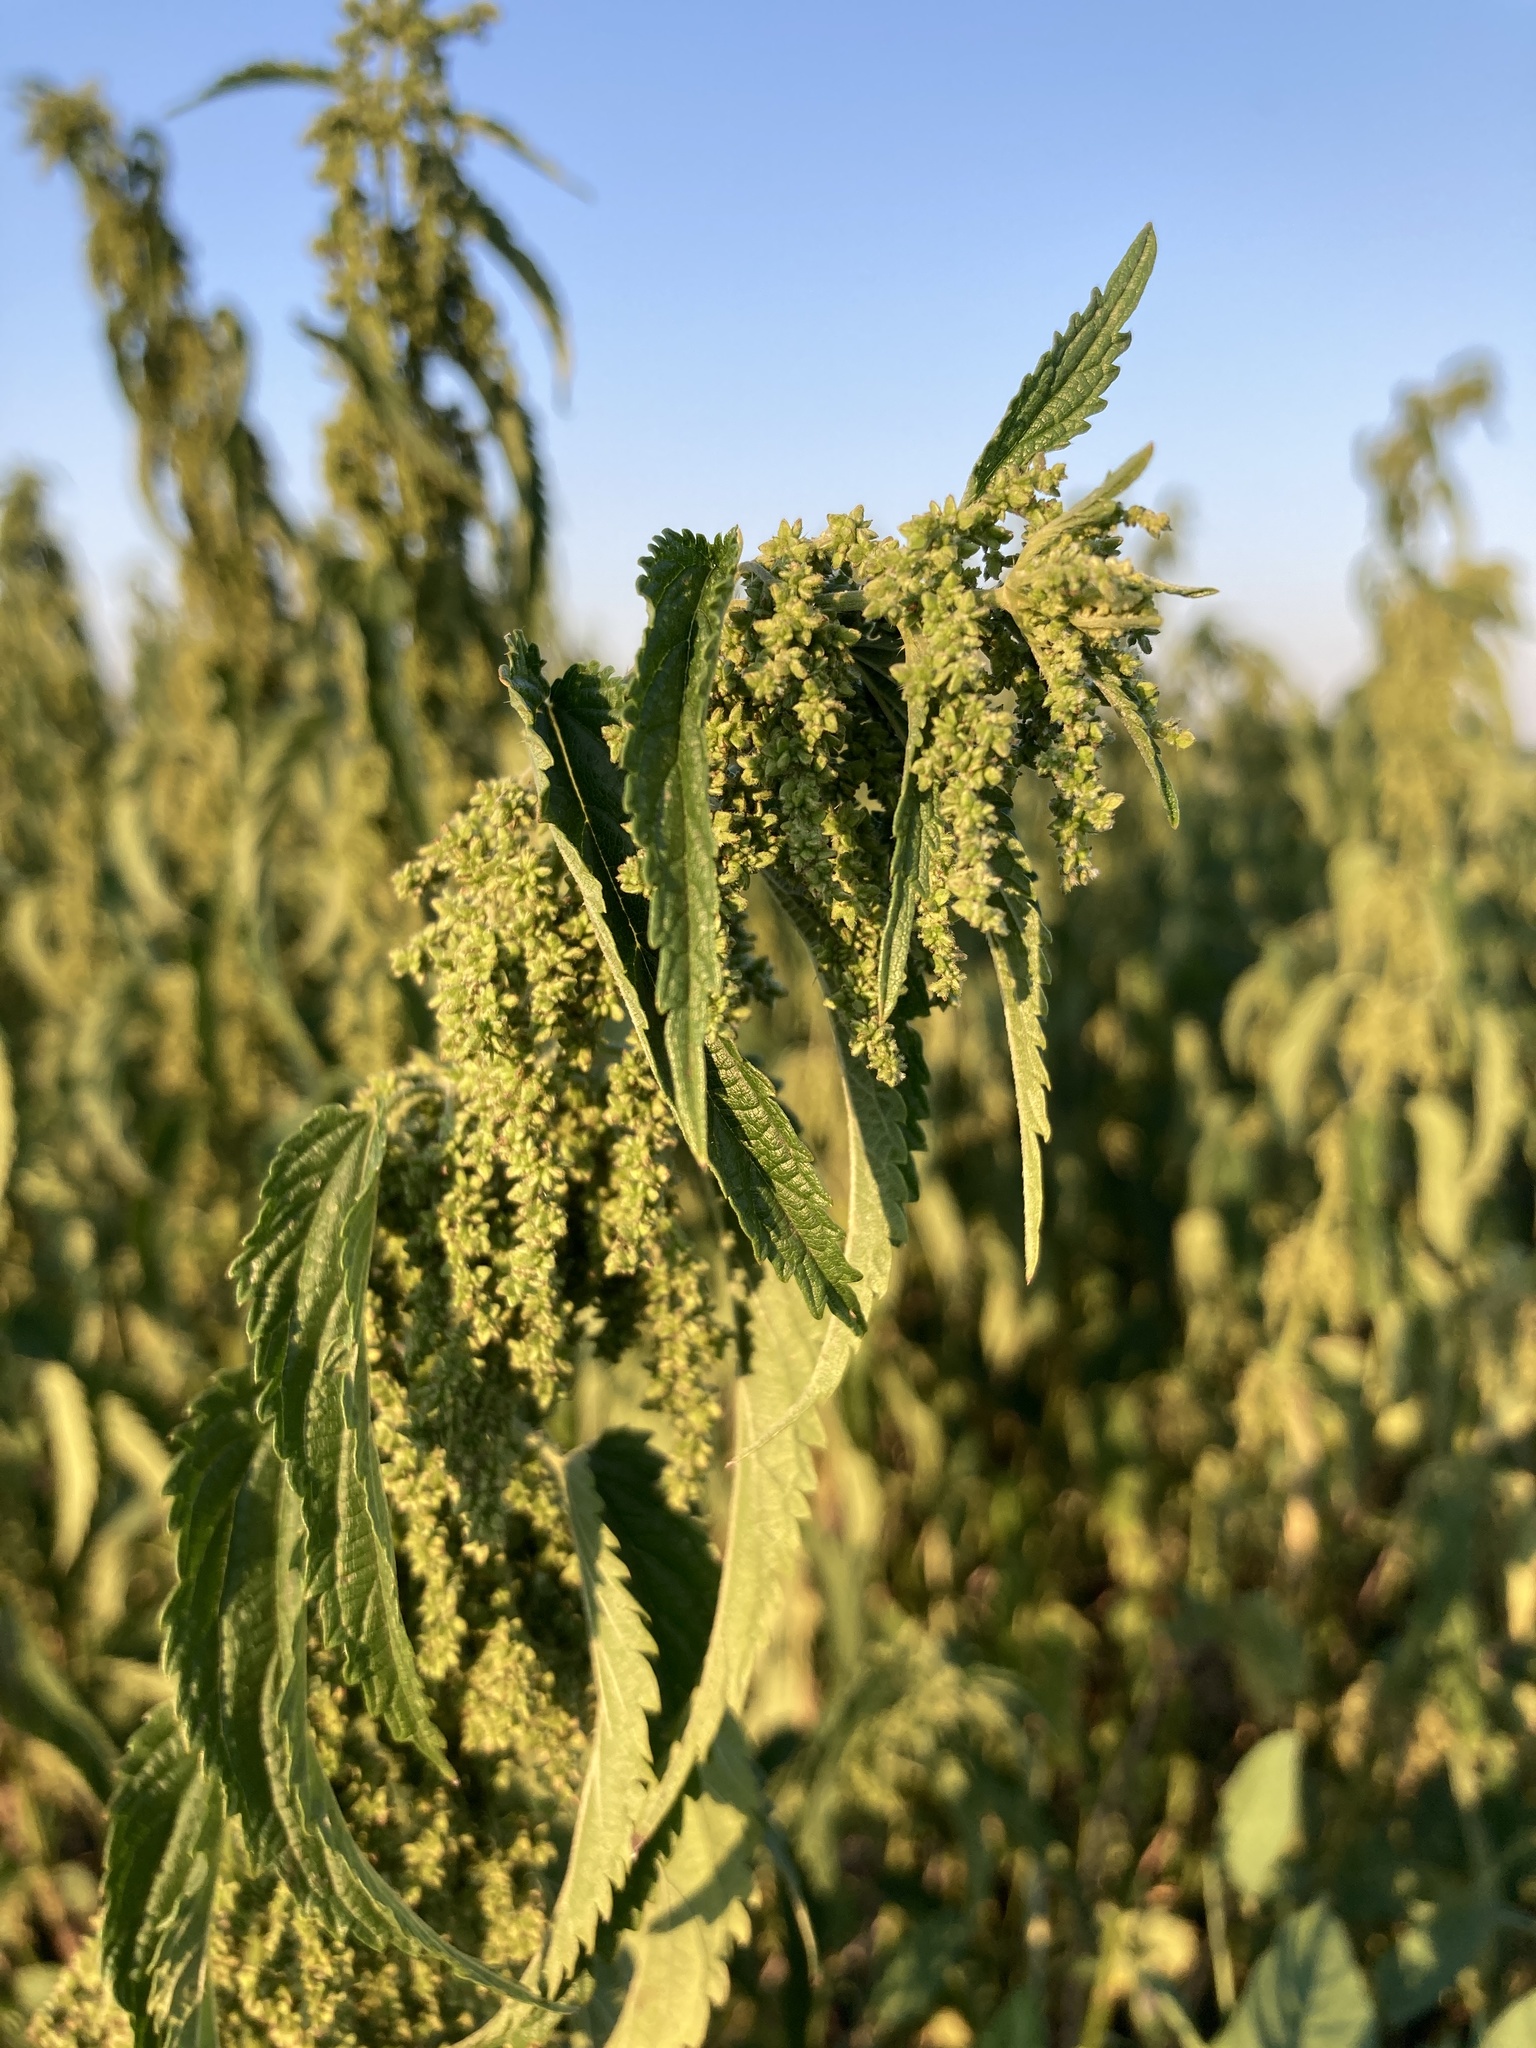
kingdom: Plantae
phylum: Tracheophyta
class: Magnoliopsida
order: Rosales
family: Urticaceae
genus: Urtica
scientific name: Urtica dioica
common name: Common nettle
